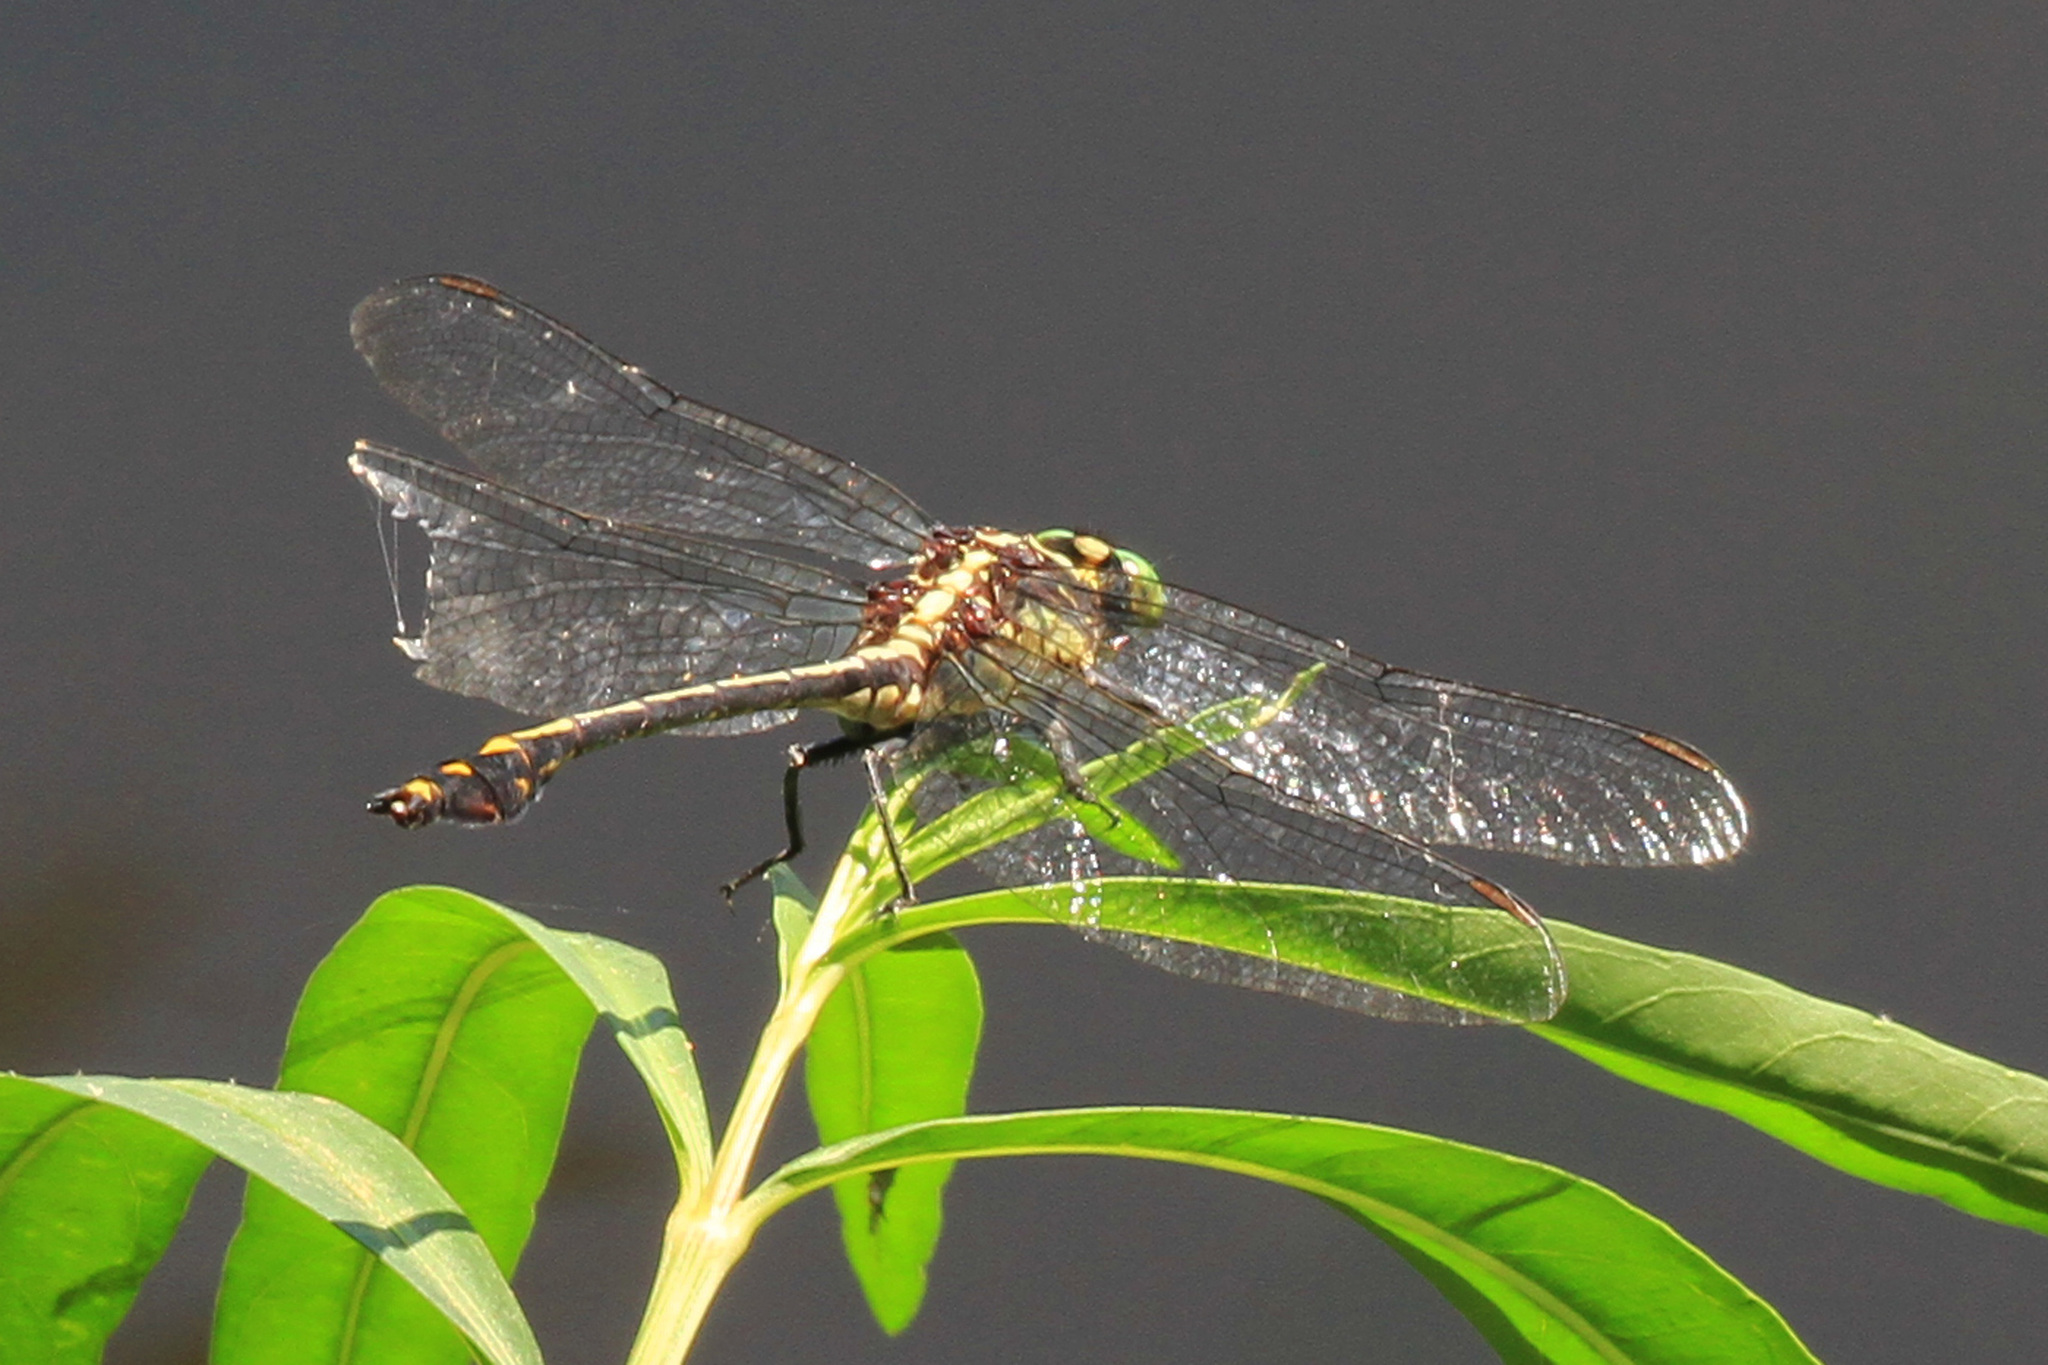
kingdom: Animalia
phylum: Arthropoda
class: Insecta
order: Odonata
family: Gomphidae
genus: Dromogomphus
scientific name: Dromogomphus spinosus
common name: Black-shouldered spinyleg
